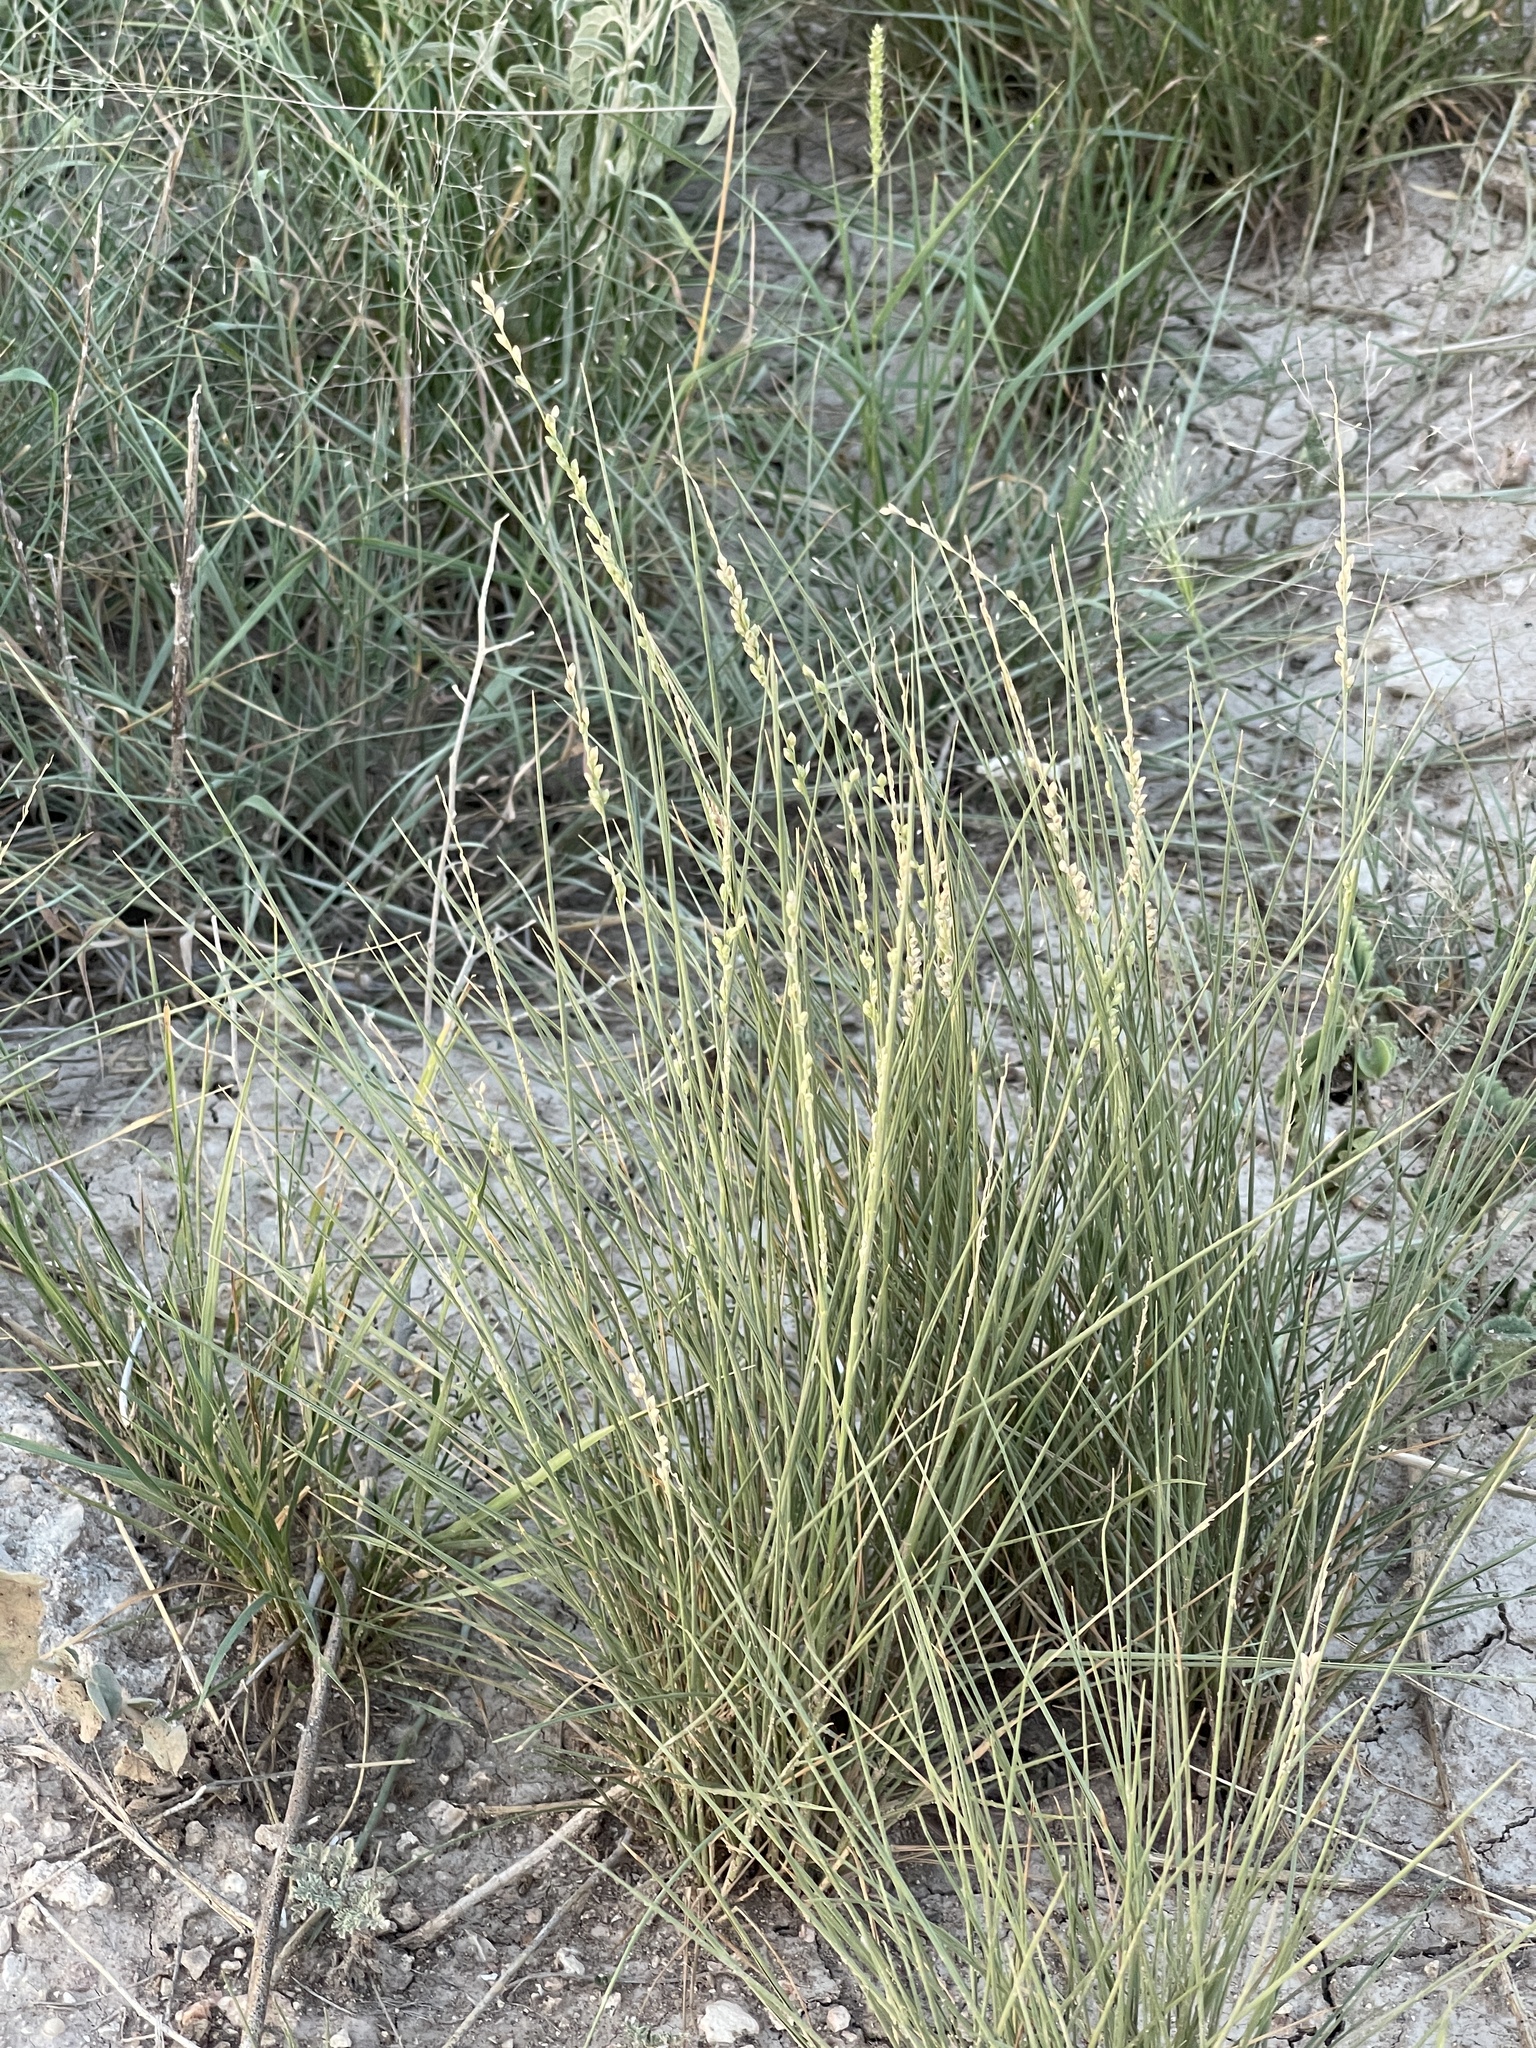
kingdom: Plantae
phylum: Tracheophyta
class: Liliopsida
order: Poales
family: Poaceae
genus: Setaria
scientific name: Setaria reverchonii
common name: Reverchon's bristle grass
